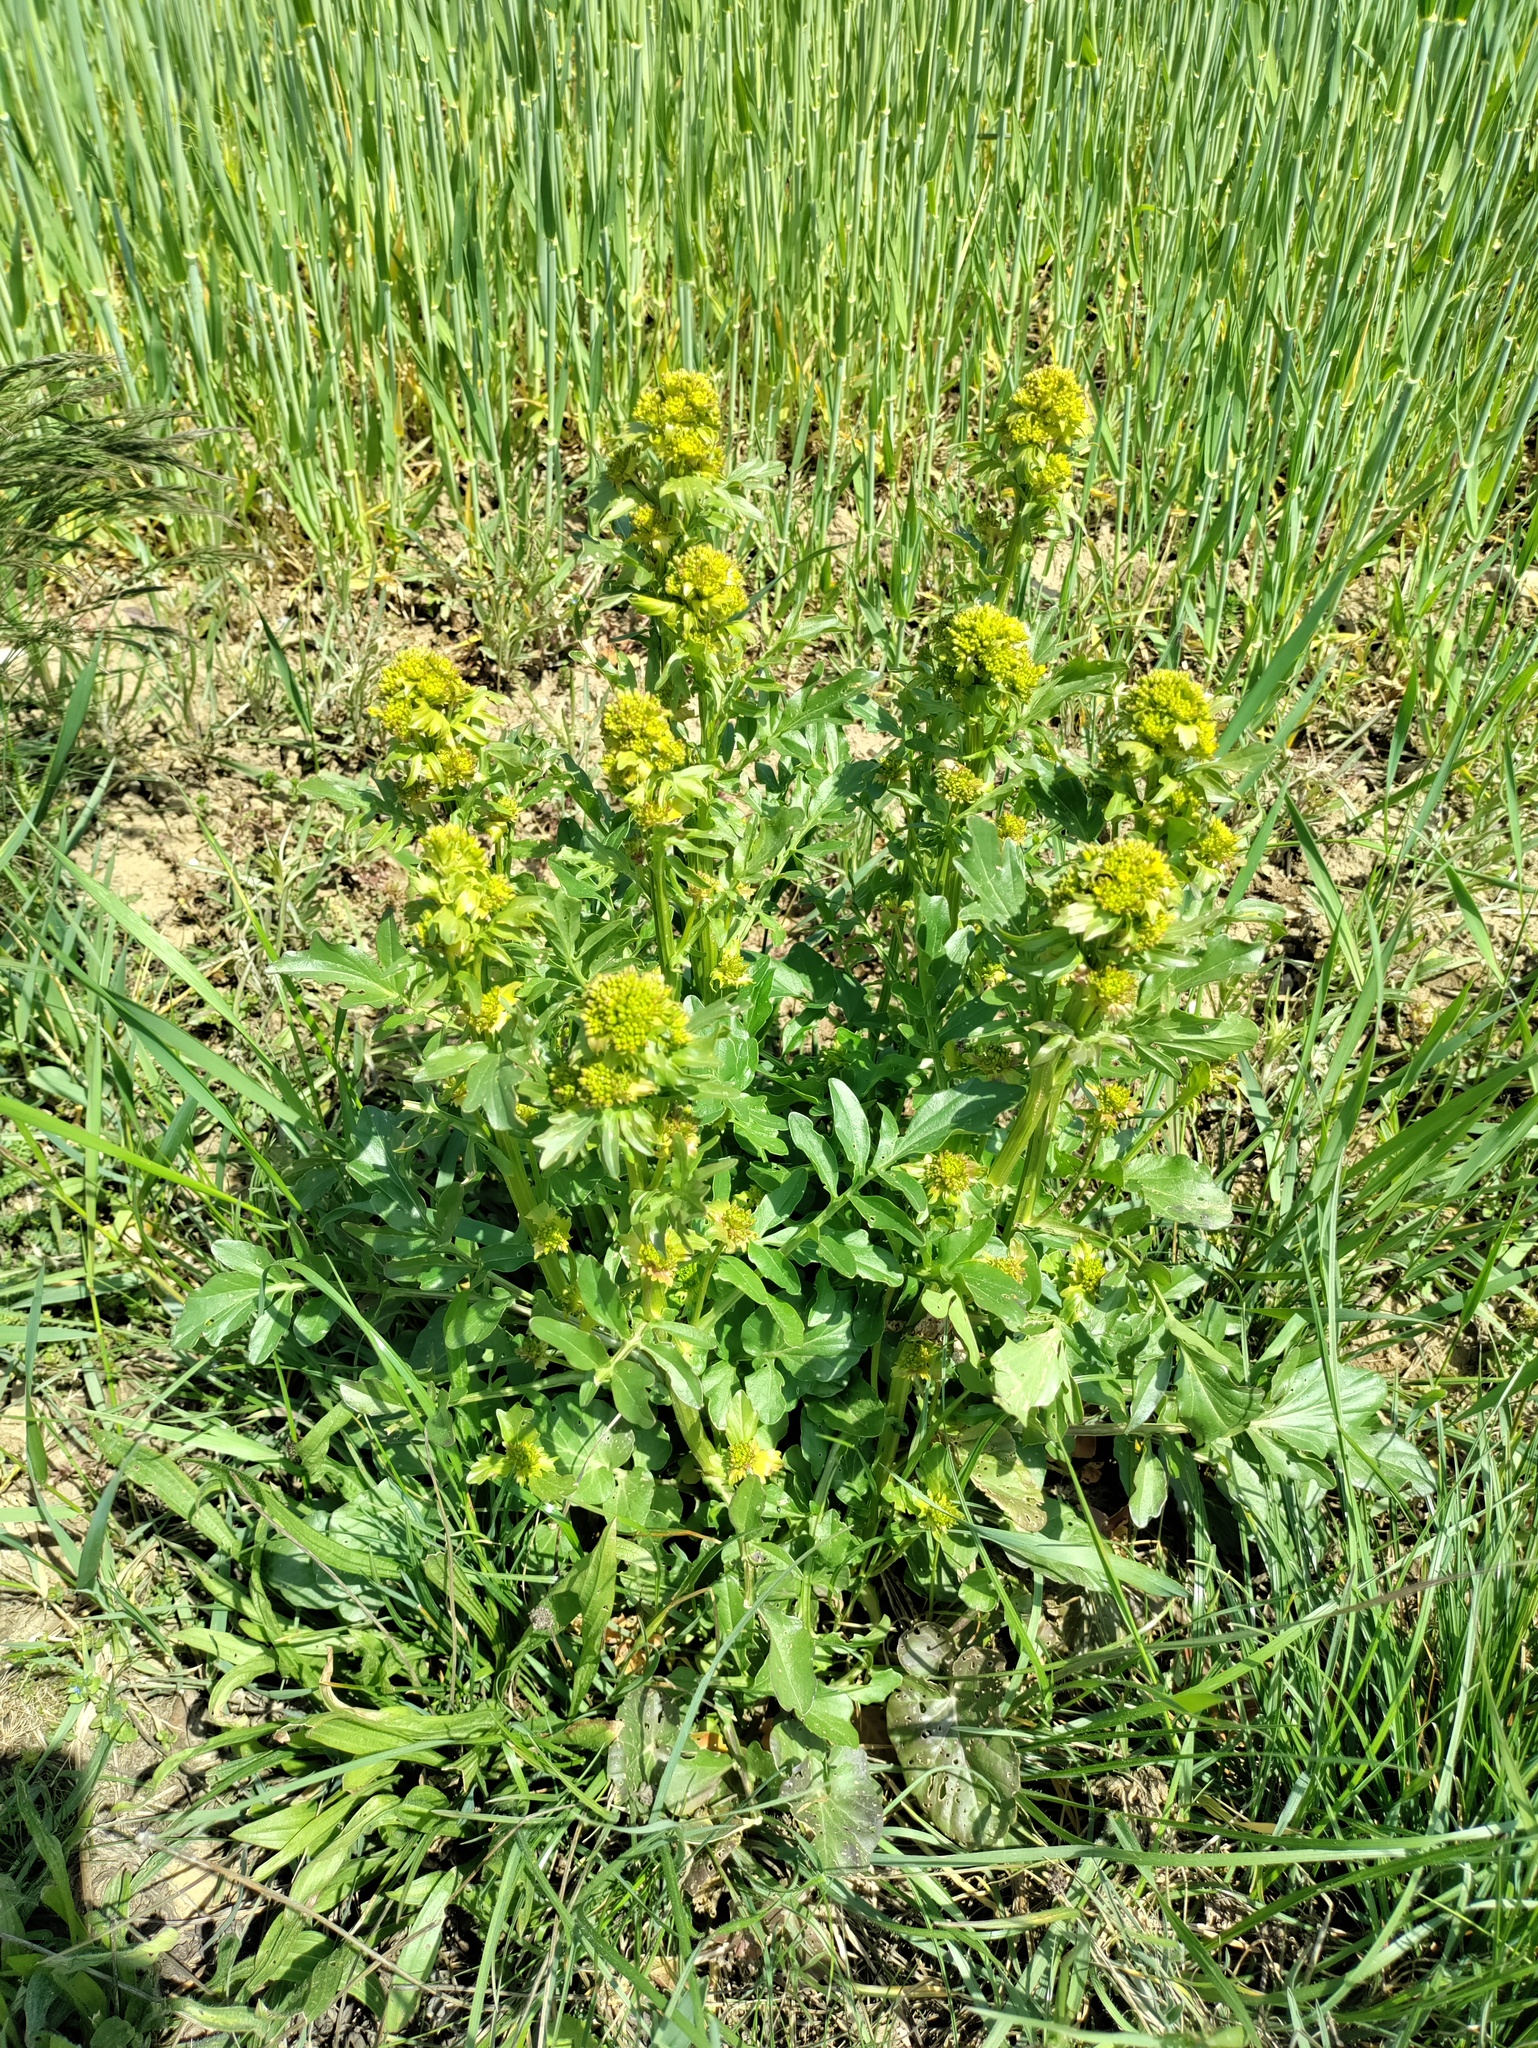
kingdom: Plantae
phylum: Tracheophyta
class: Magnoliopsida
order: Brassicales
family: Brassicaceae
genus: Barbarea
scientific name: Barbarea vulgaris
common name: Cressy-greens
